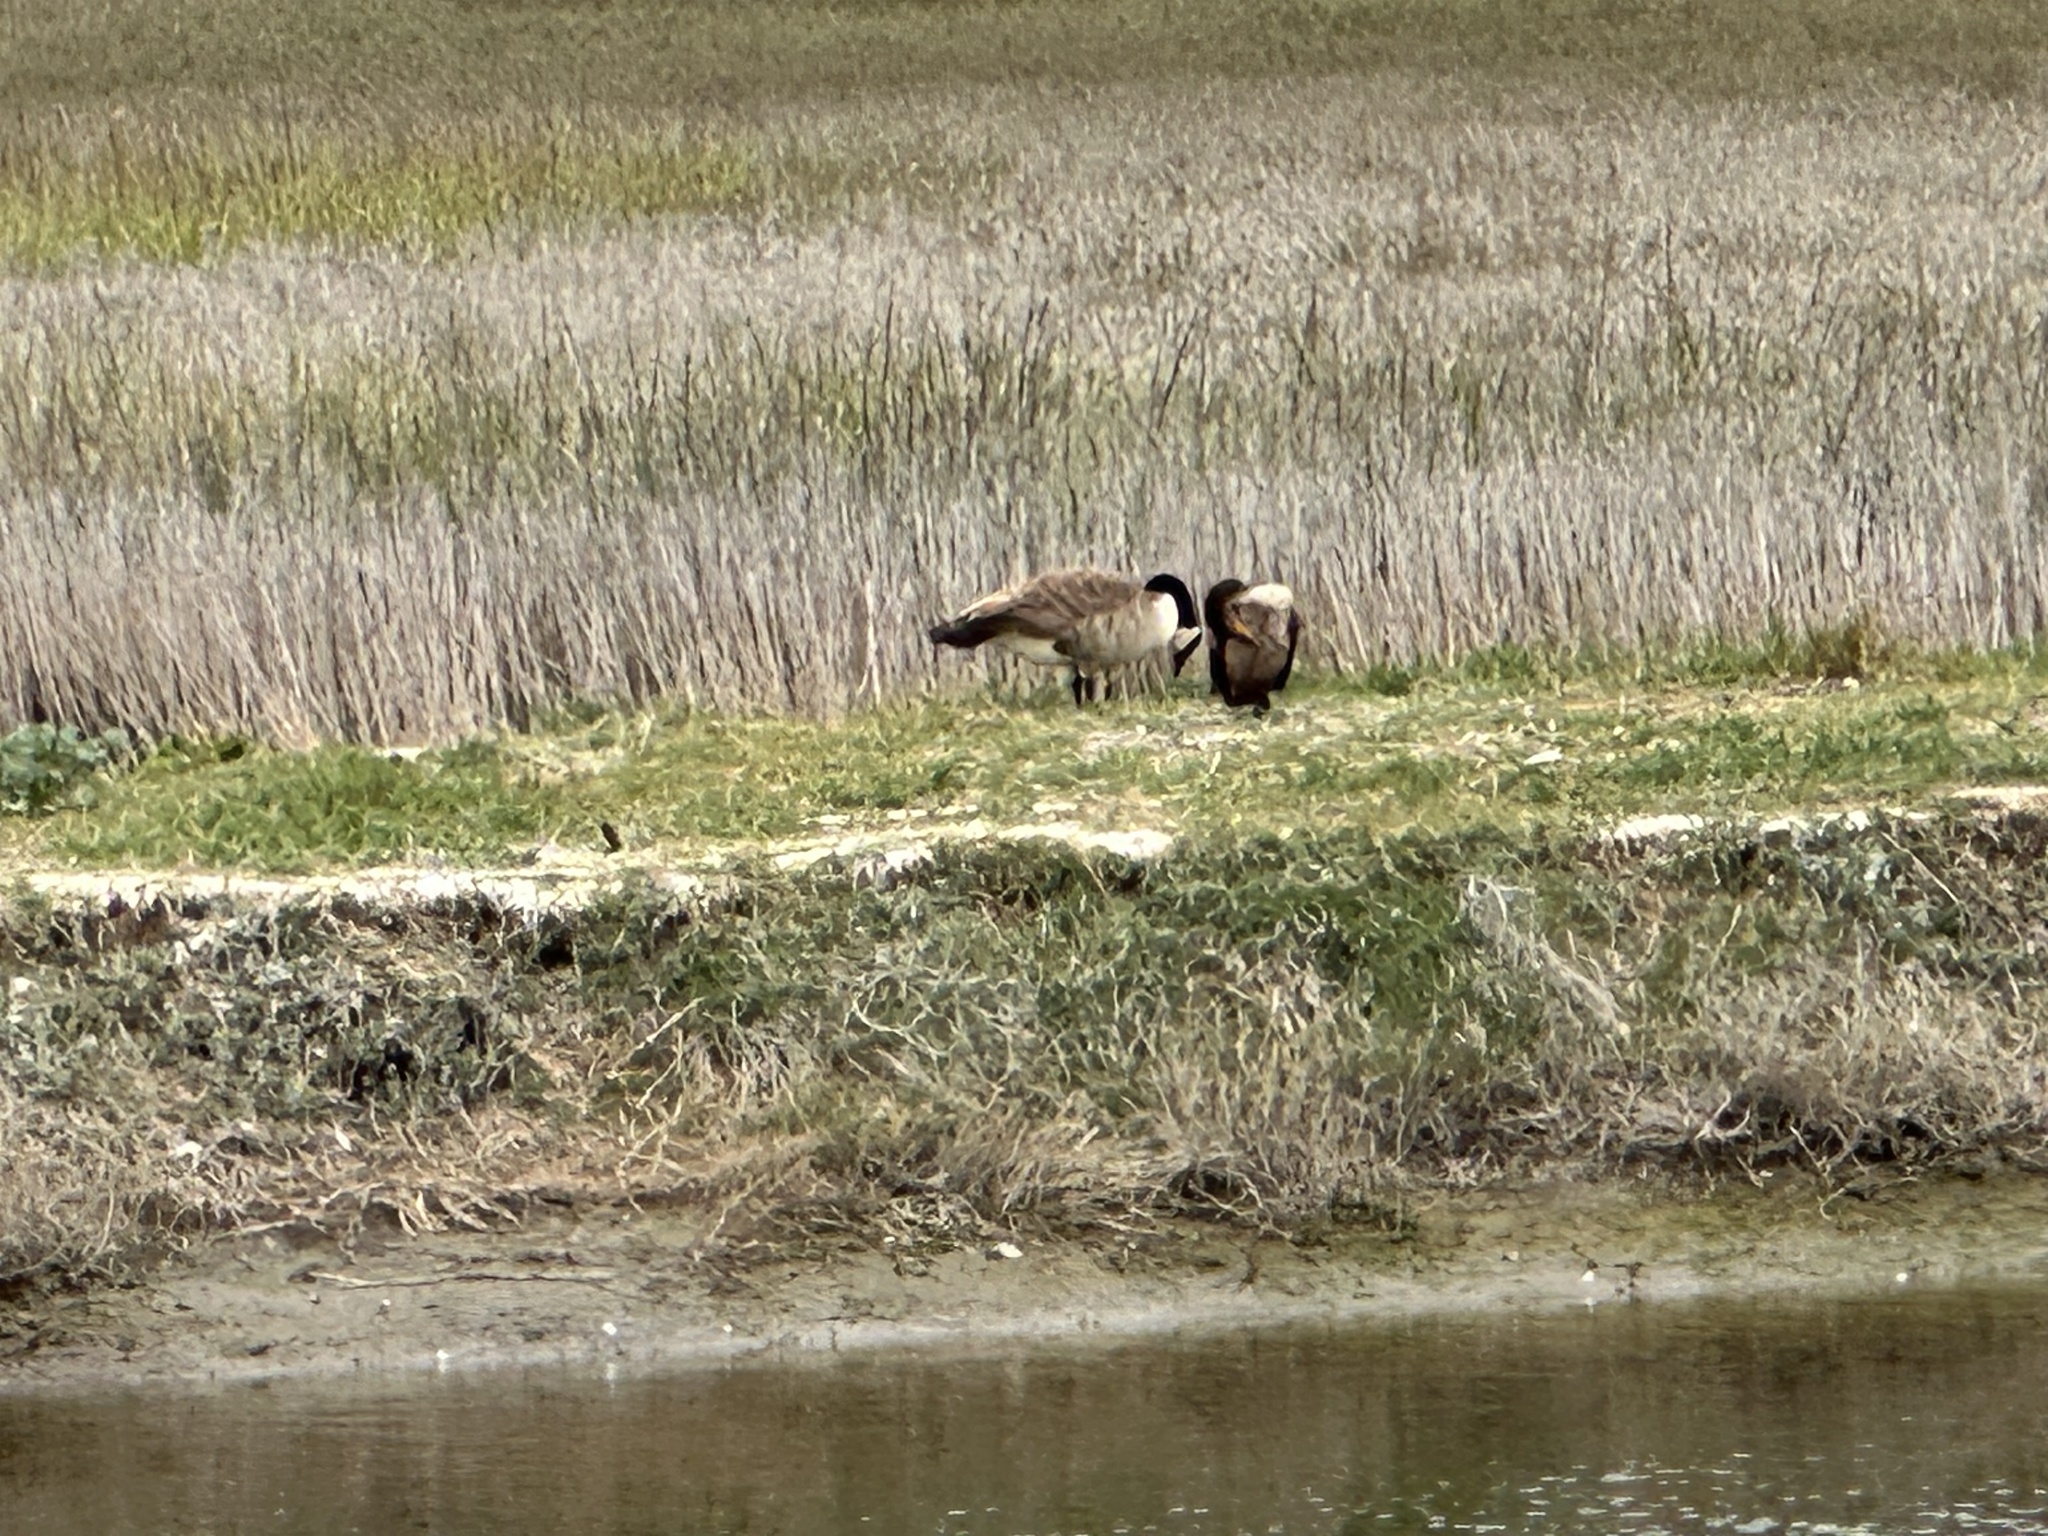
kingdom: Animalia
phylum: Chordata
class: Aves
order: Anseriformes
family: Anatidae
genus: Branta
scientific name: Branta canadensis
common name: Canada goose
